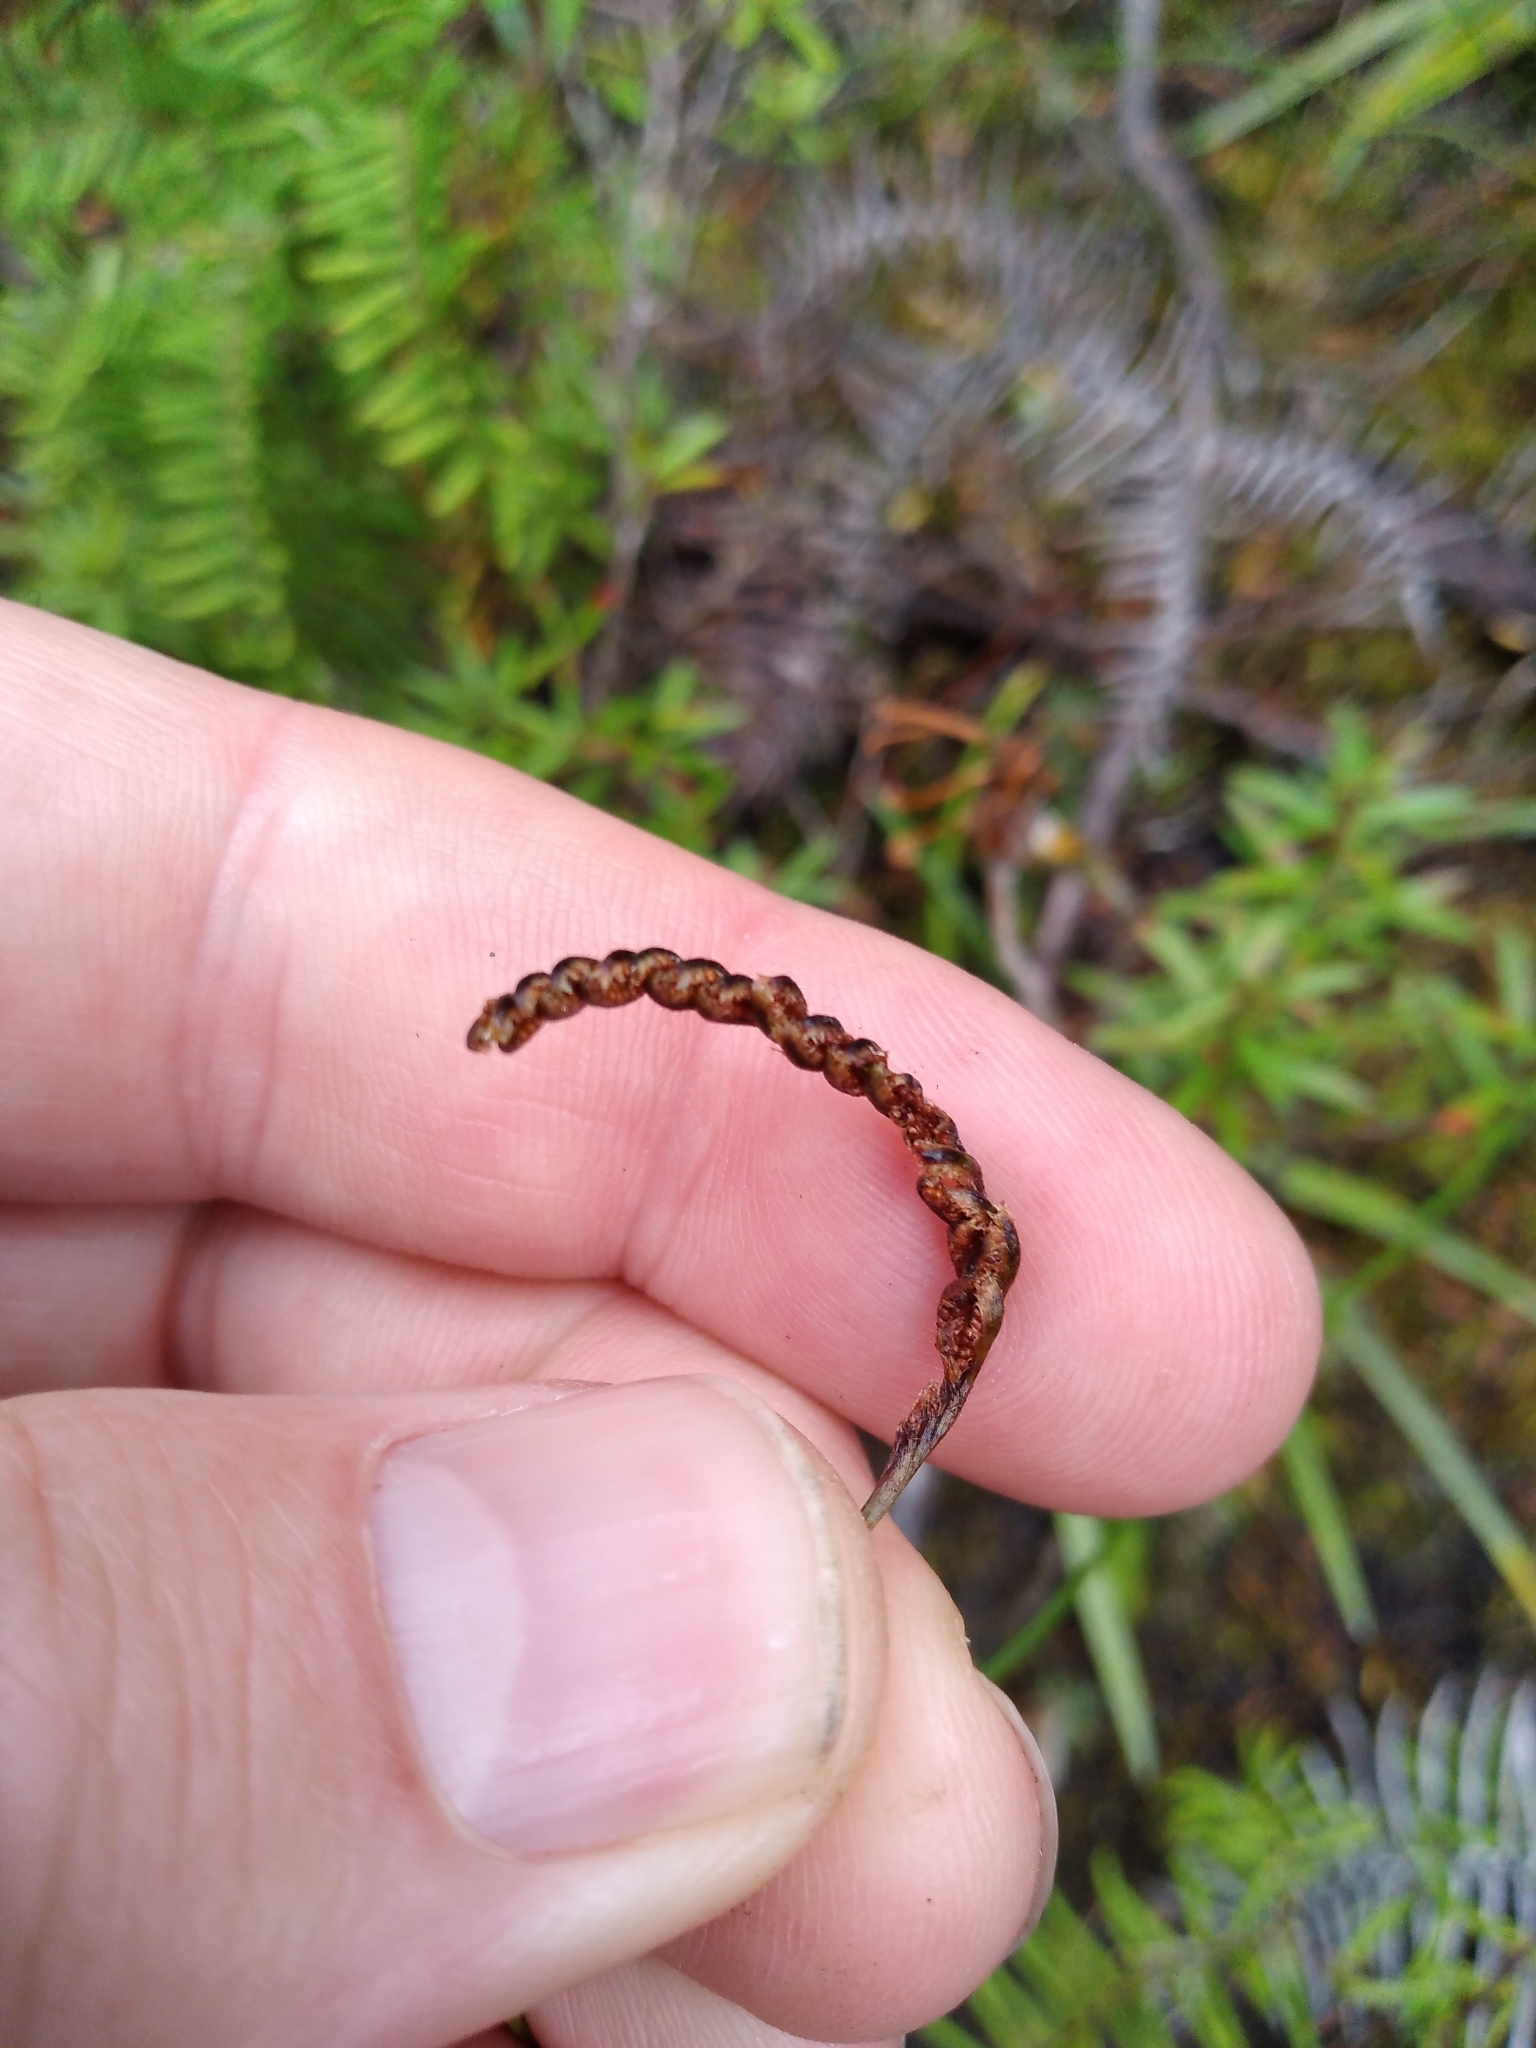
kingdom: Plantae
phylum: Tracheophyta
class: Polypodiopsida
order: Schizaeales
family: Schizaeaceae
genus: Microschizaea
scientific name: Microschizaea fistulosa
